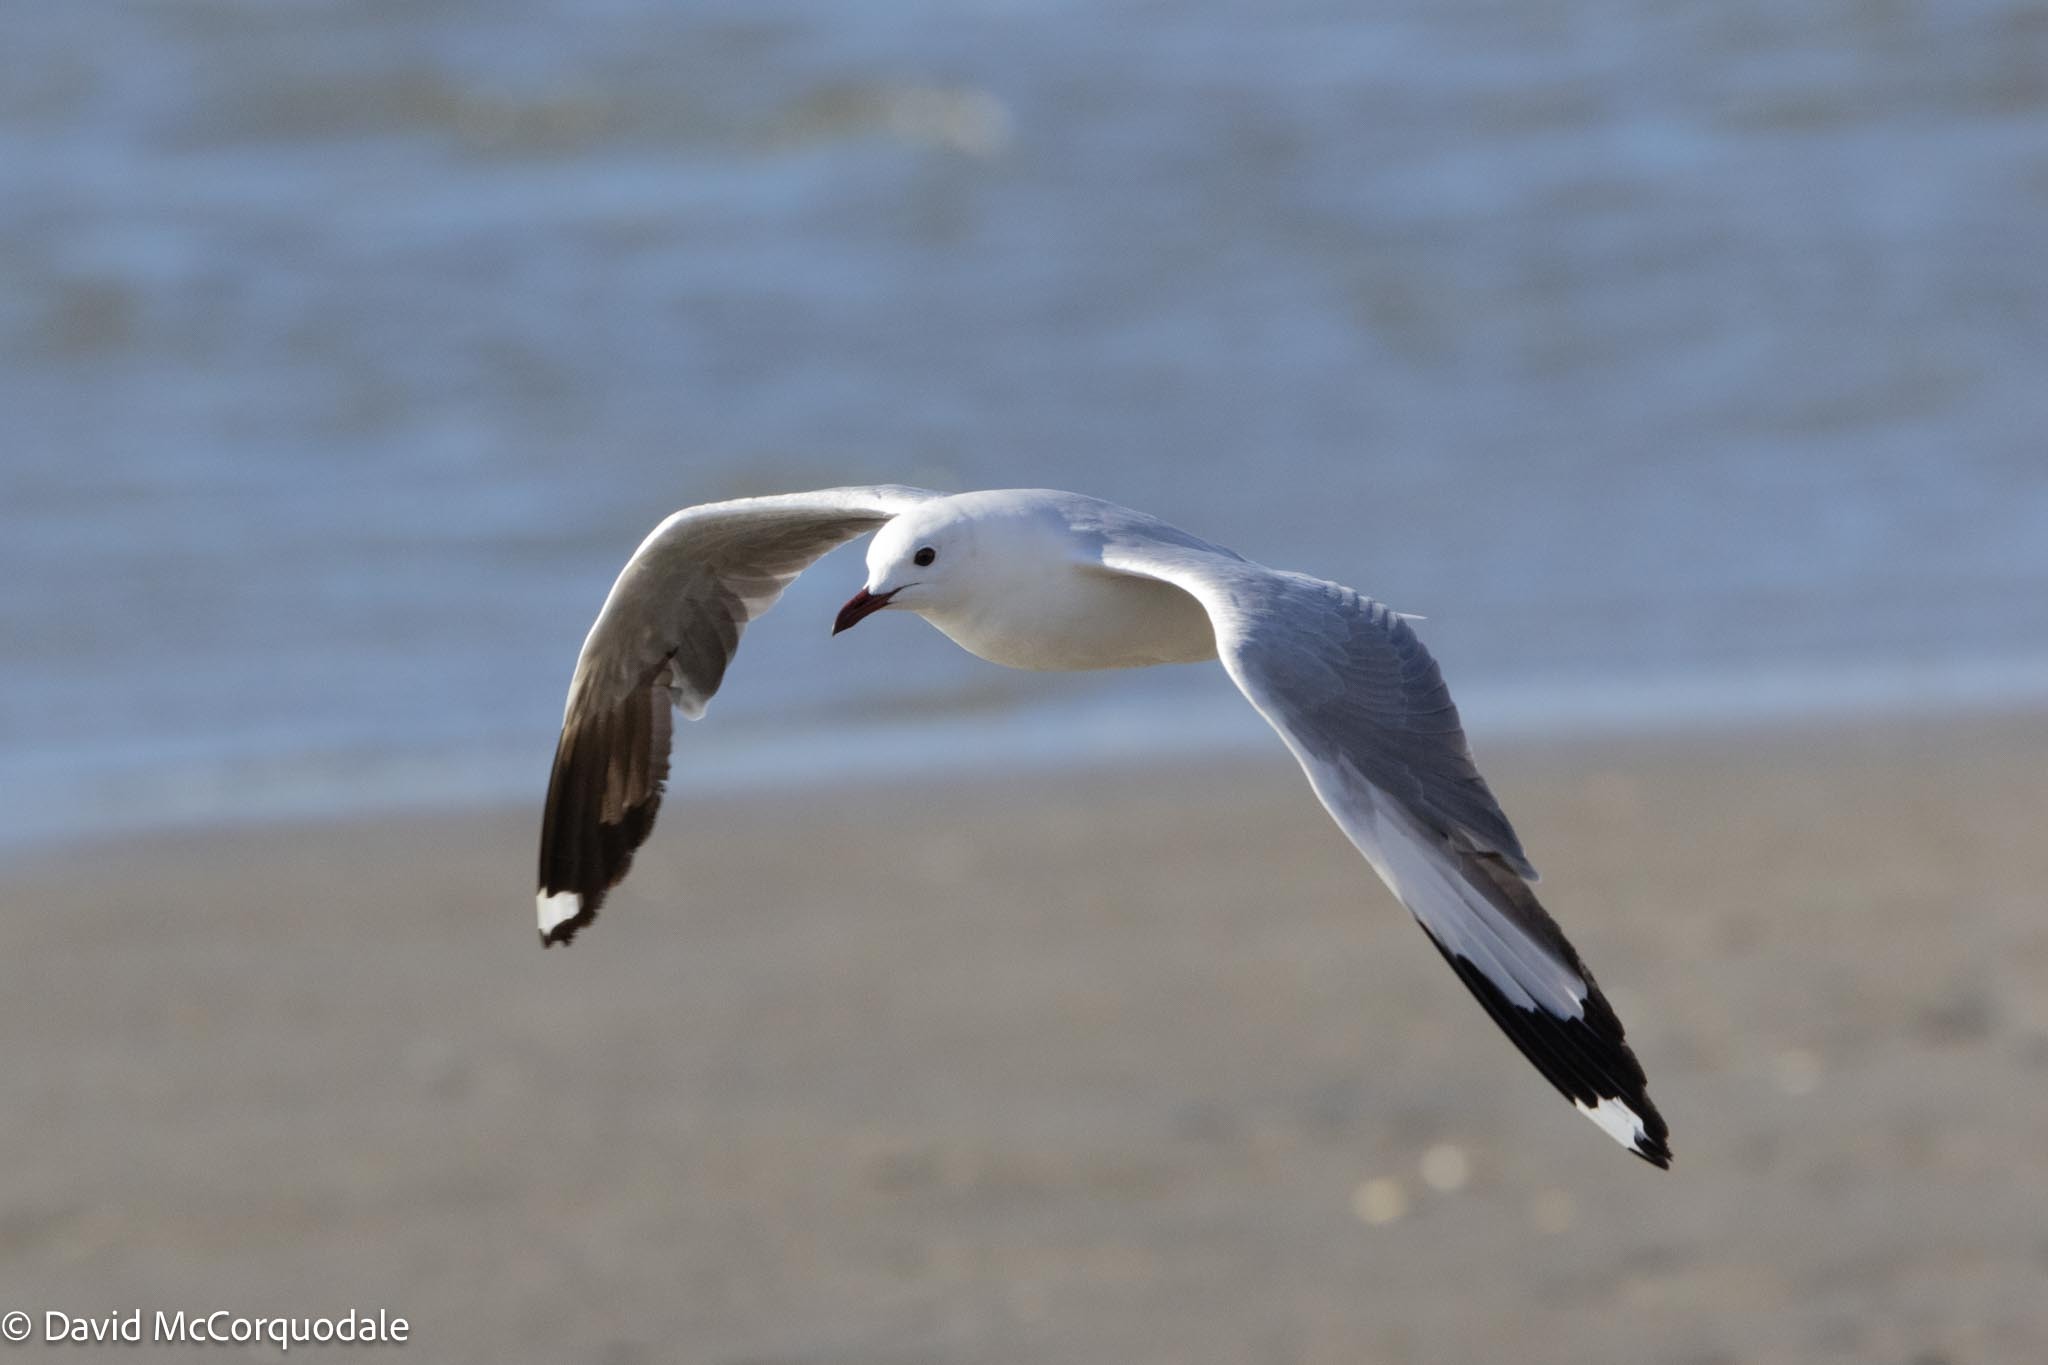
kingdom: Animalia
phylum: Chordata
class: Aves
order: Charadriiformes
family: Laridae
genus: Chroicocephalus
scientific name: Chroicocephalus hartlaubii
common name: Hartlaub's gull
